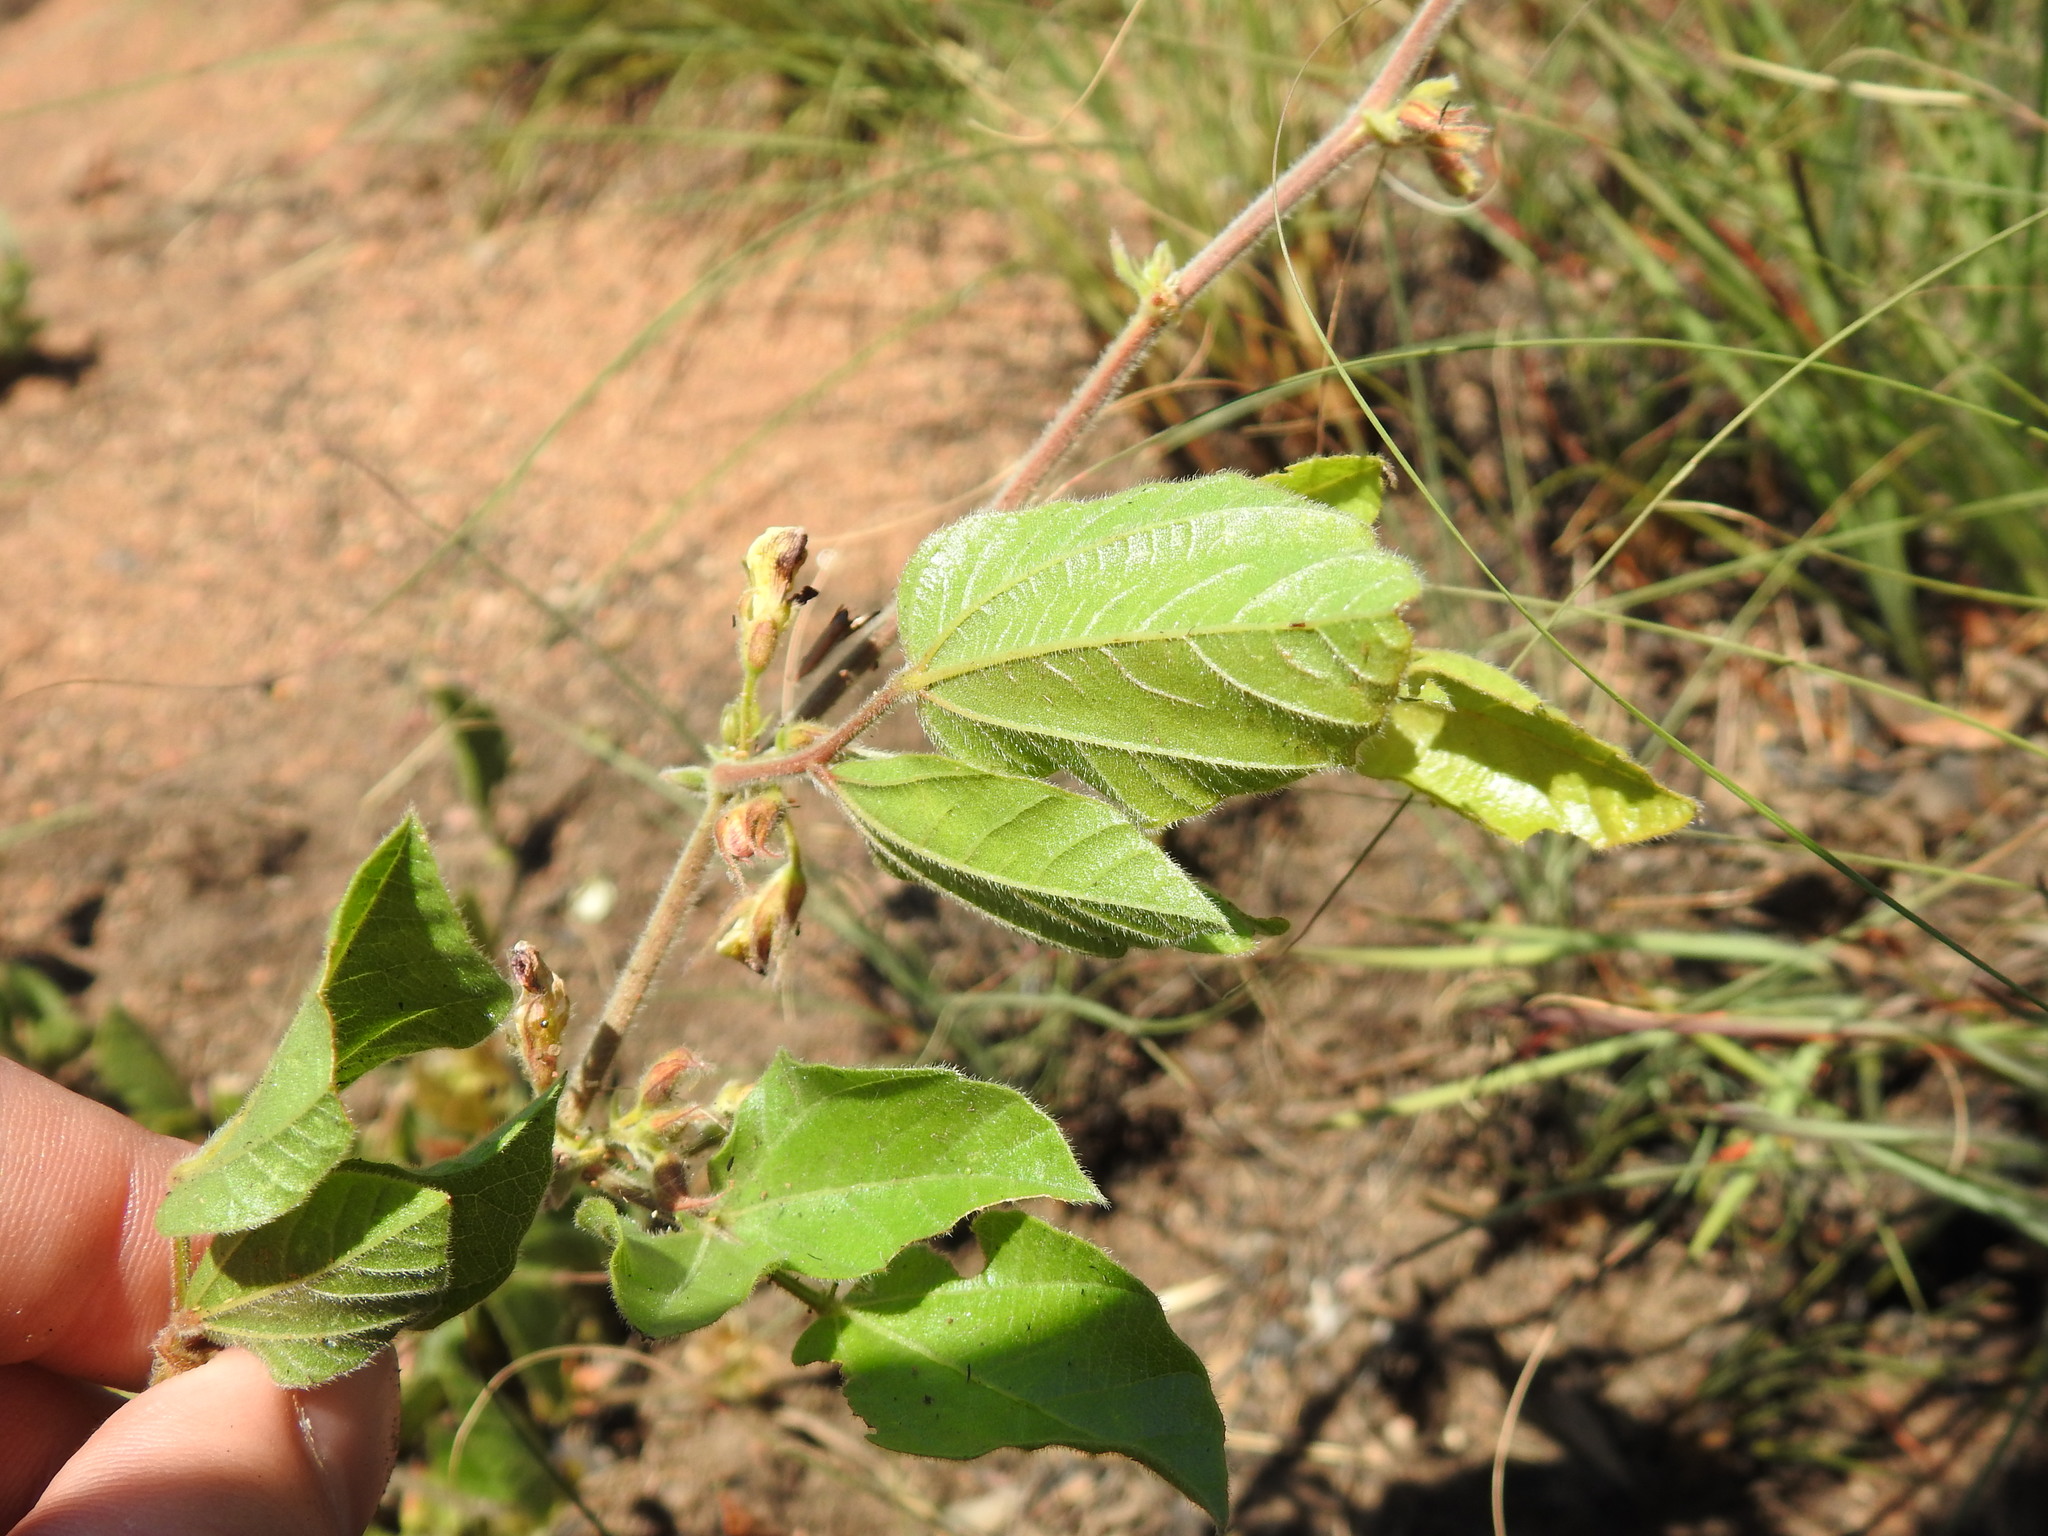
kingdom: Plantae
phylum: Tracheophyta
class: Magnoliopsida
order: Fabales
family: Fabaceae
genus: Rhynchosia
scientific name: Rhynchosia monophylla
